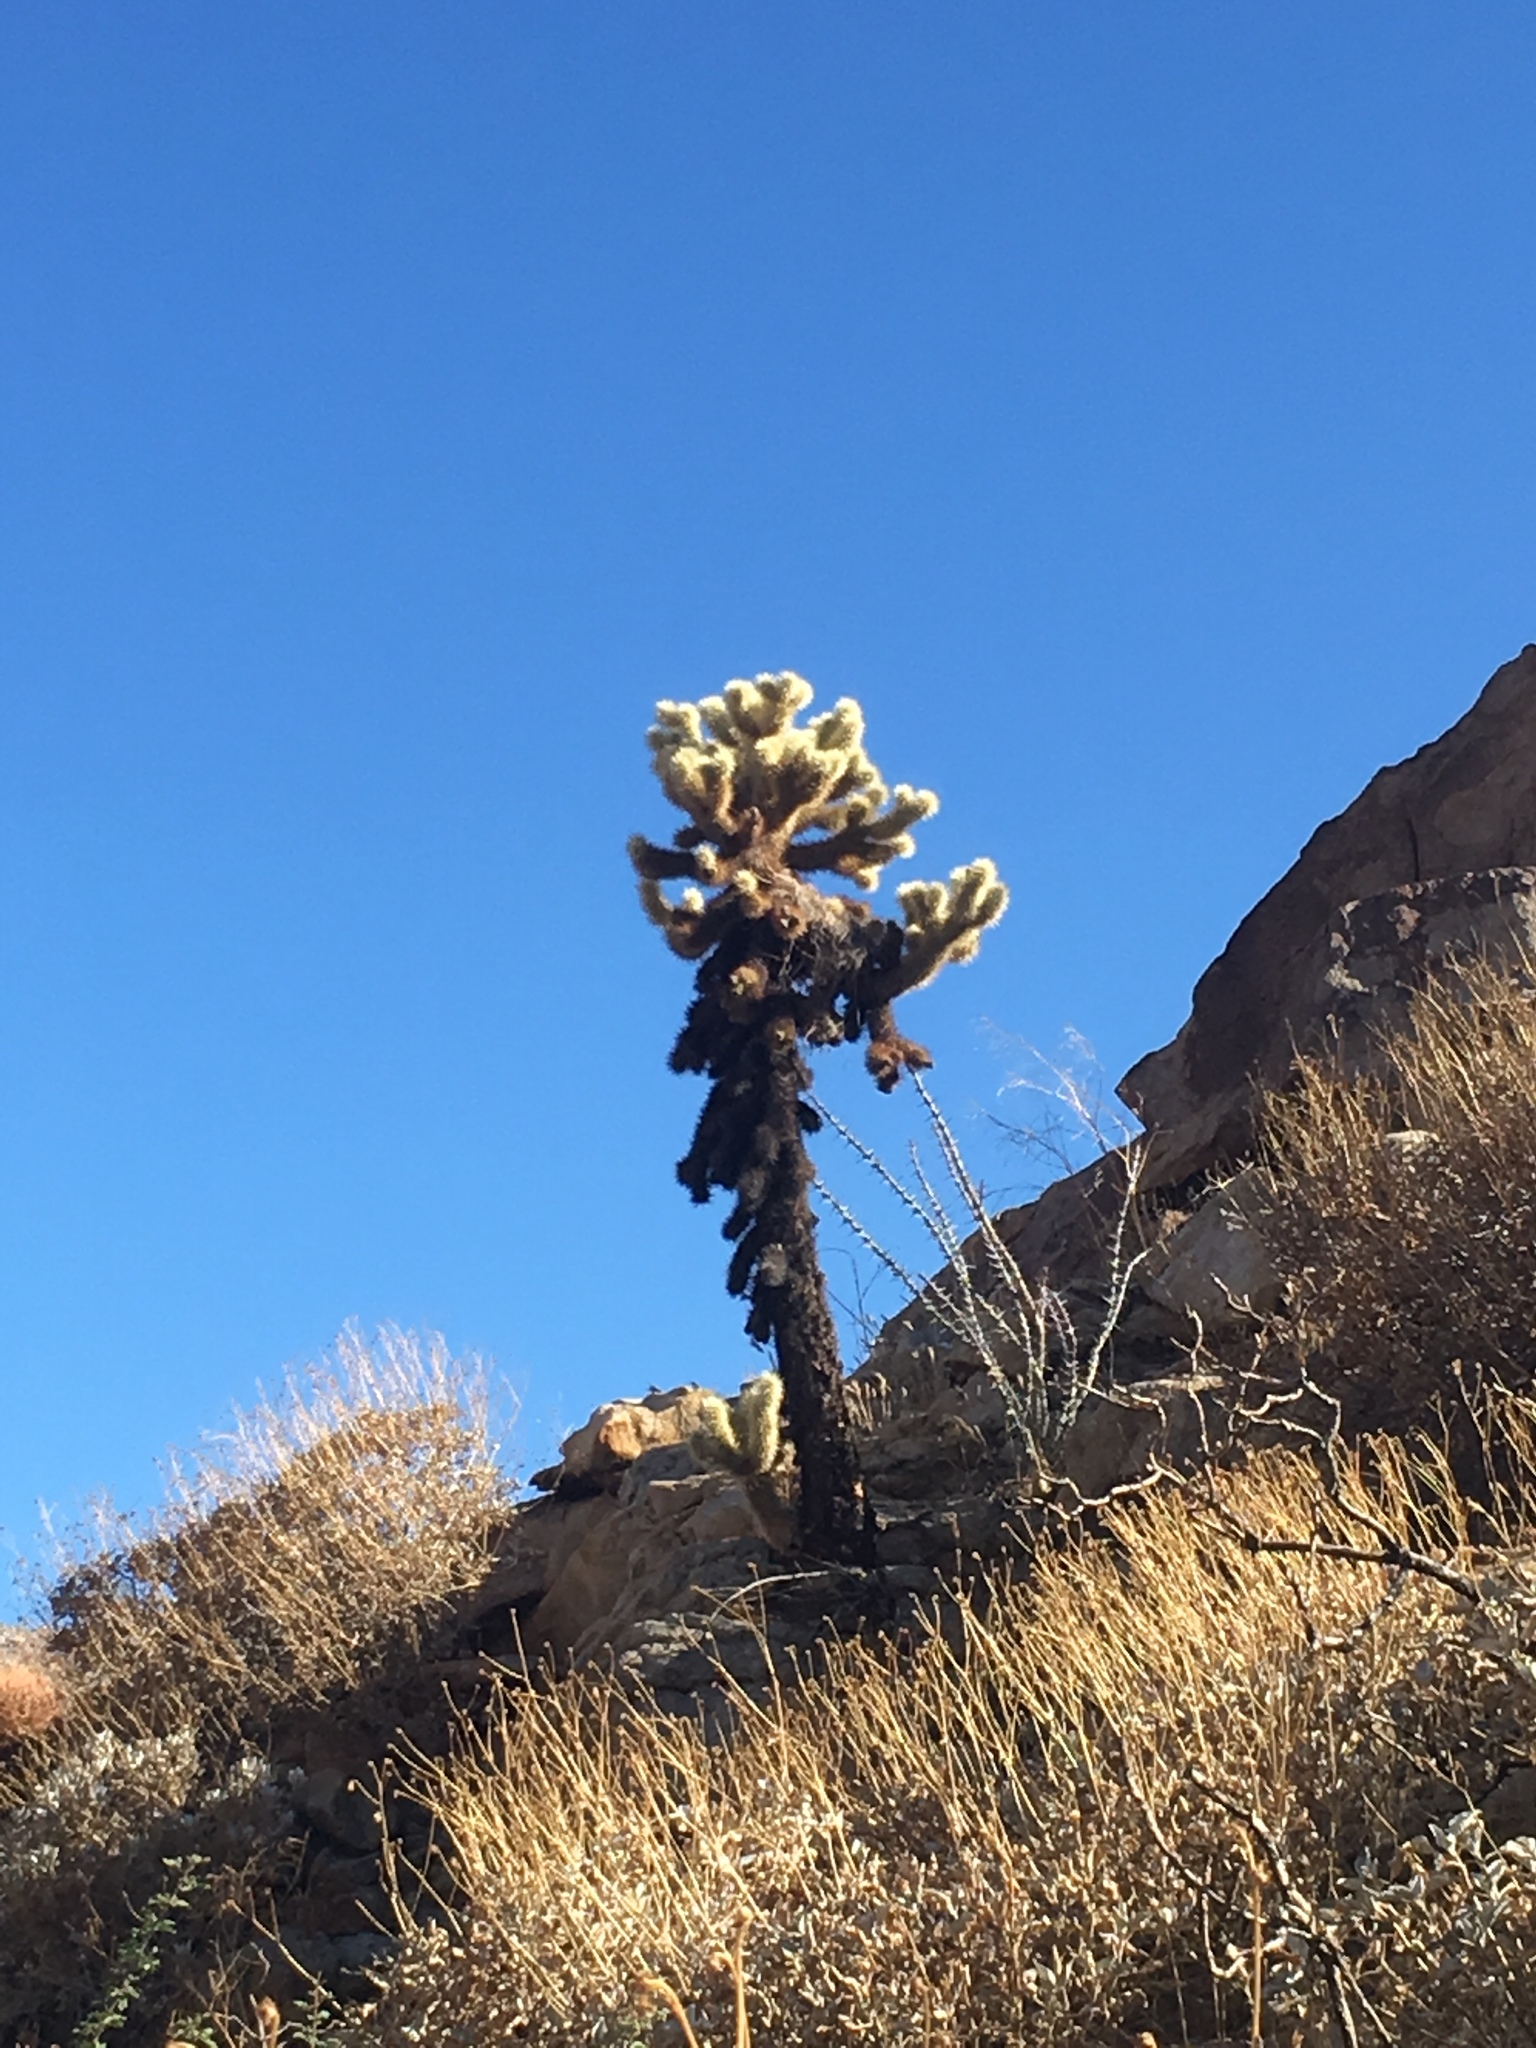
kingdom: Plantae
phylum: Tracheophyta
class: Magnoliopsida
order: Caryophyllales
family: Cactaceae
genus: Cylindropuntia
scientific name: Cylindropuntia fosbergii
